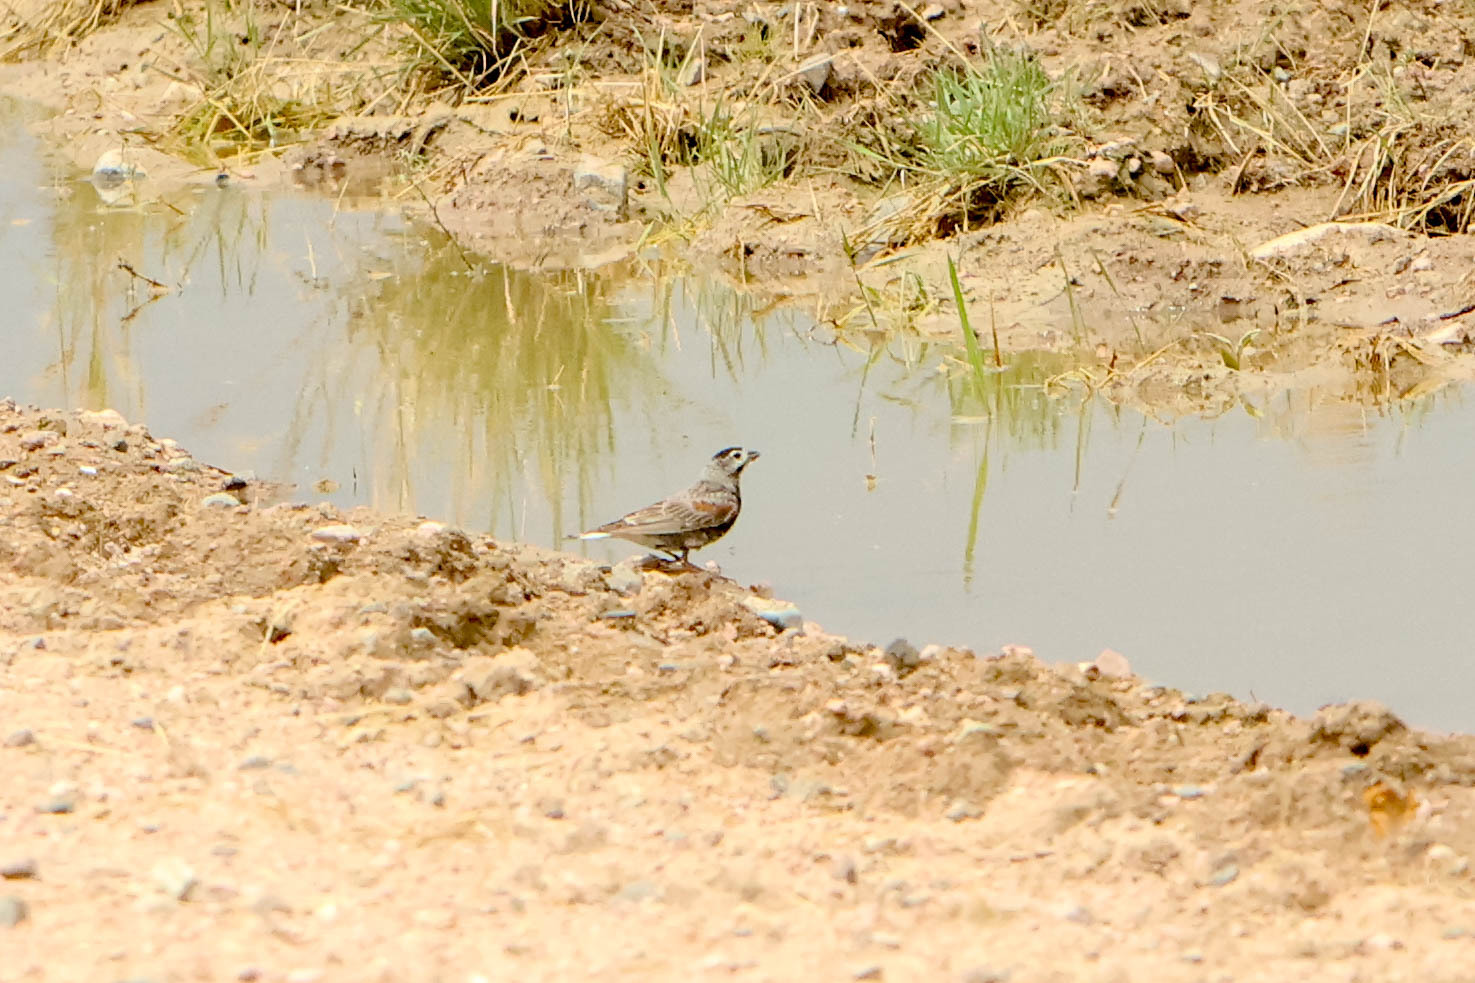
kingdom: Animalia
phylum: Chordata
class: Aves
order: Passeriformes
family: Calcariidae
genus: Rhynchophanes
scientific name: Rhynchophanes mccownii
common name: Mccown's longspur
